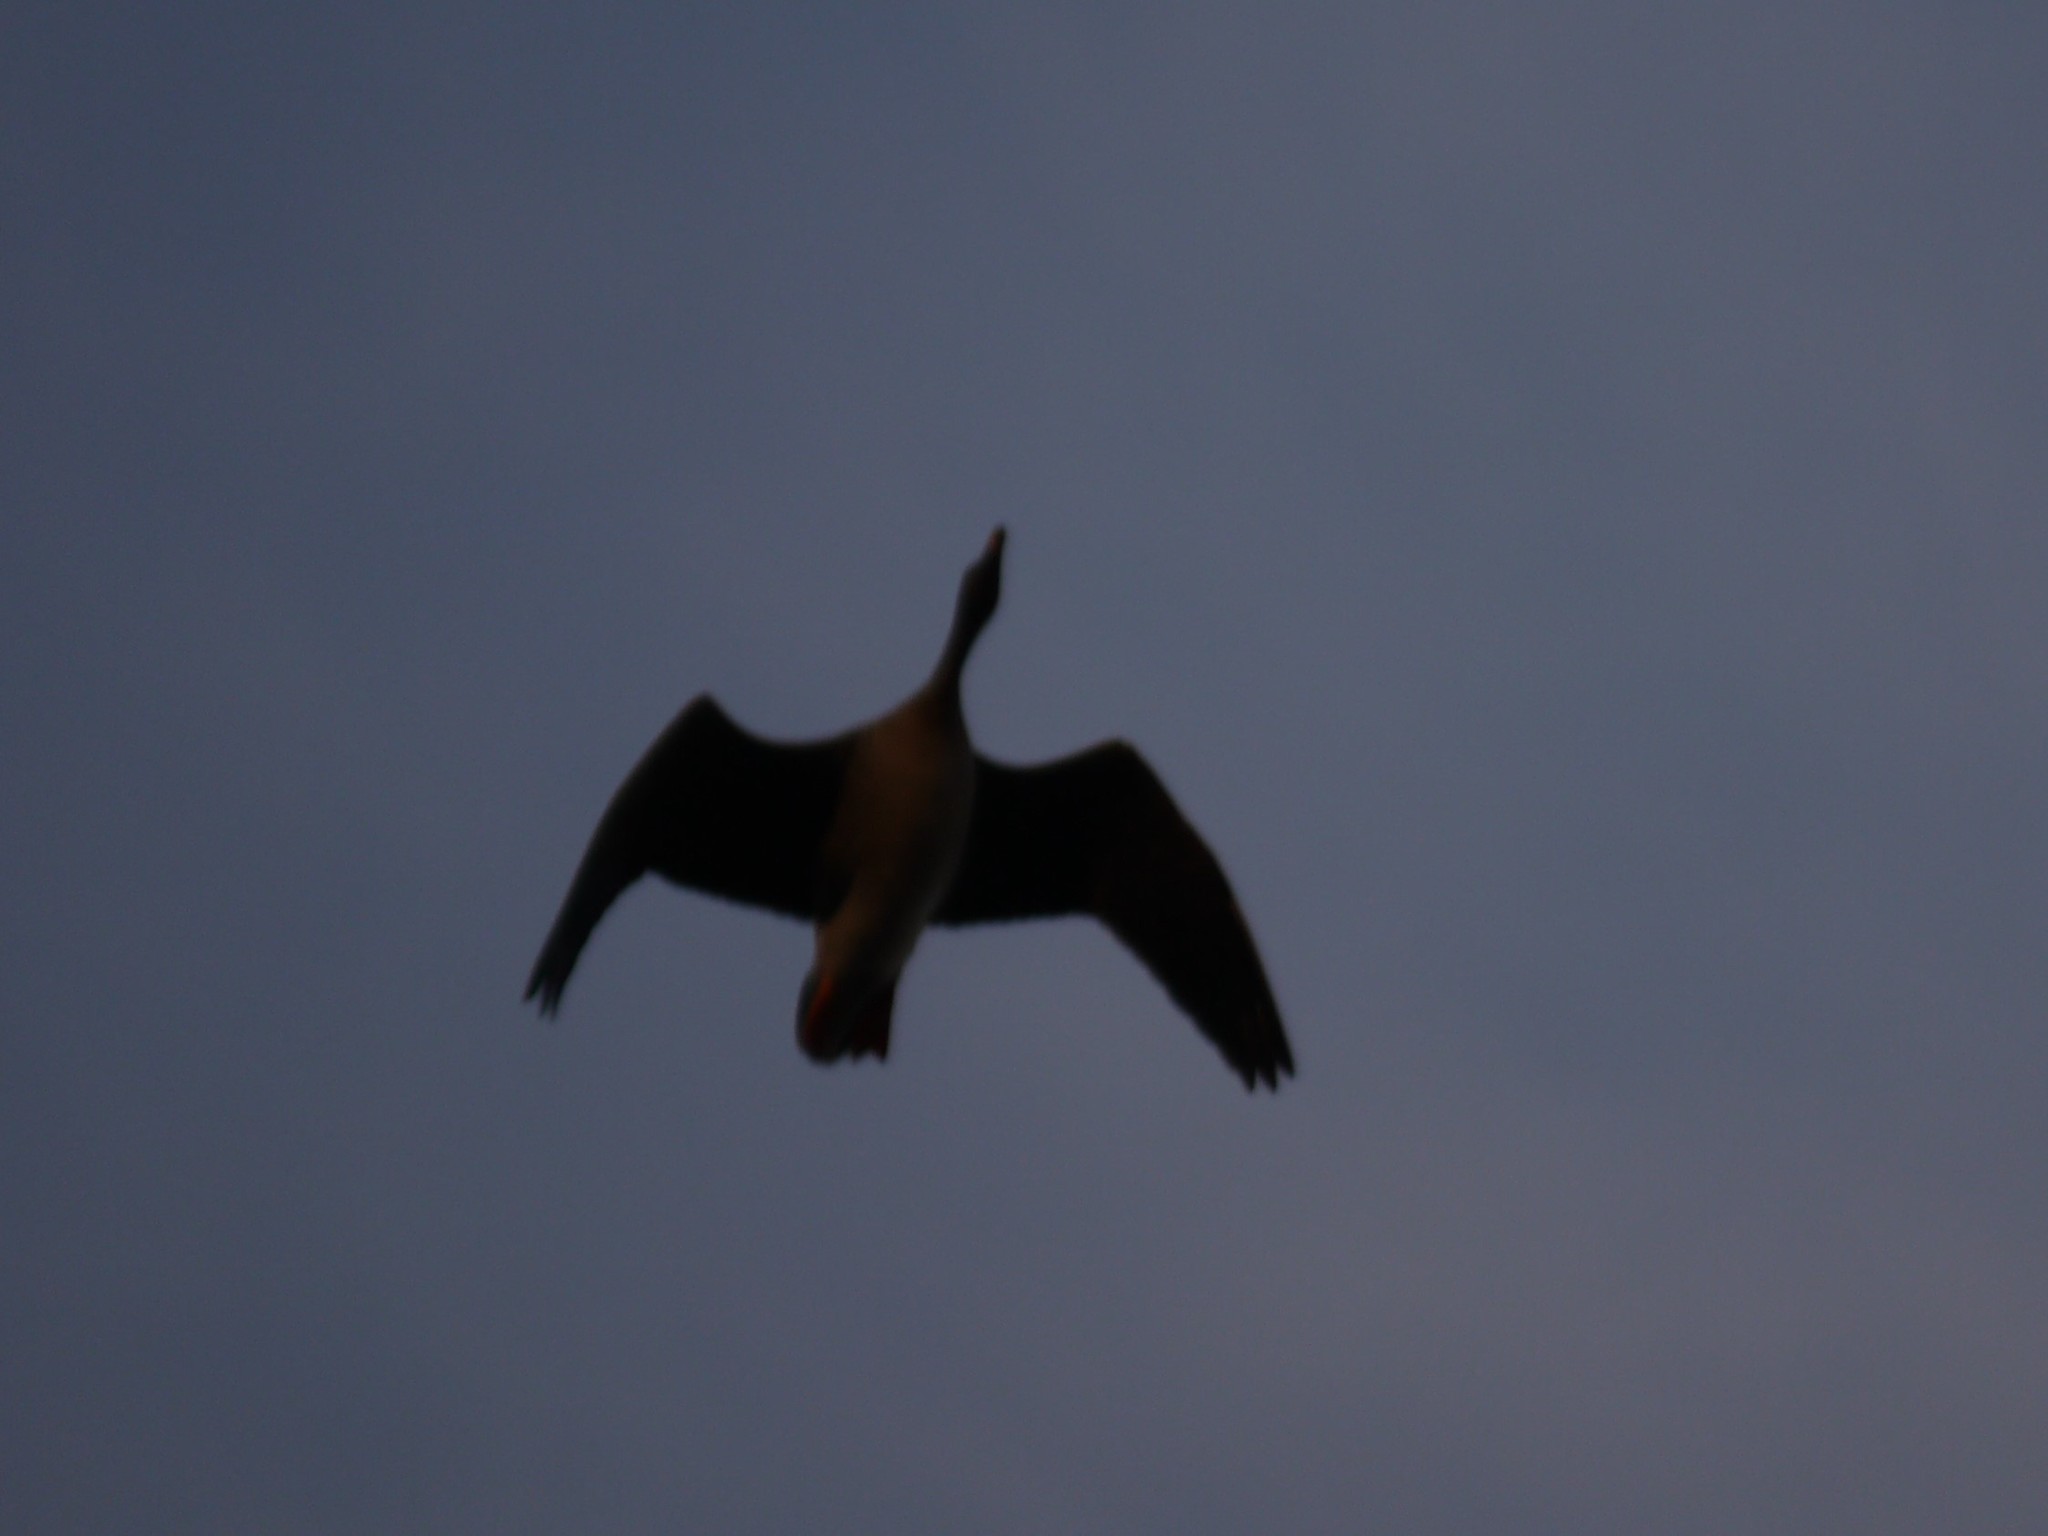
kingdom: Animalia
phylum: Chordata
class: Aves
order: Anseriformes
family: Anatidae
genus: Anser
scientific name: Anser fabalis
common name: Bean goose
